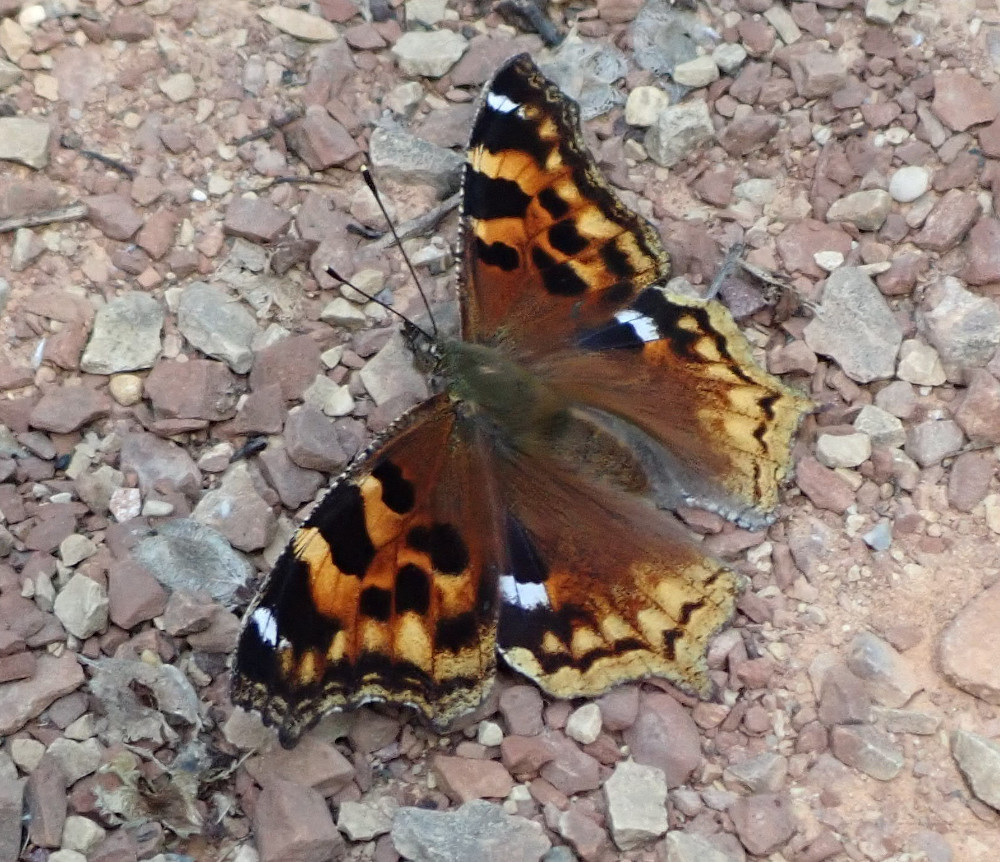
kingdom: Animalia
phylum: Arthropoda
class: Insecta
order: Lepidoptera
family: Nymphalidae
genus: Polygonia
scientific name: Polygonia vaualbum
